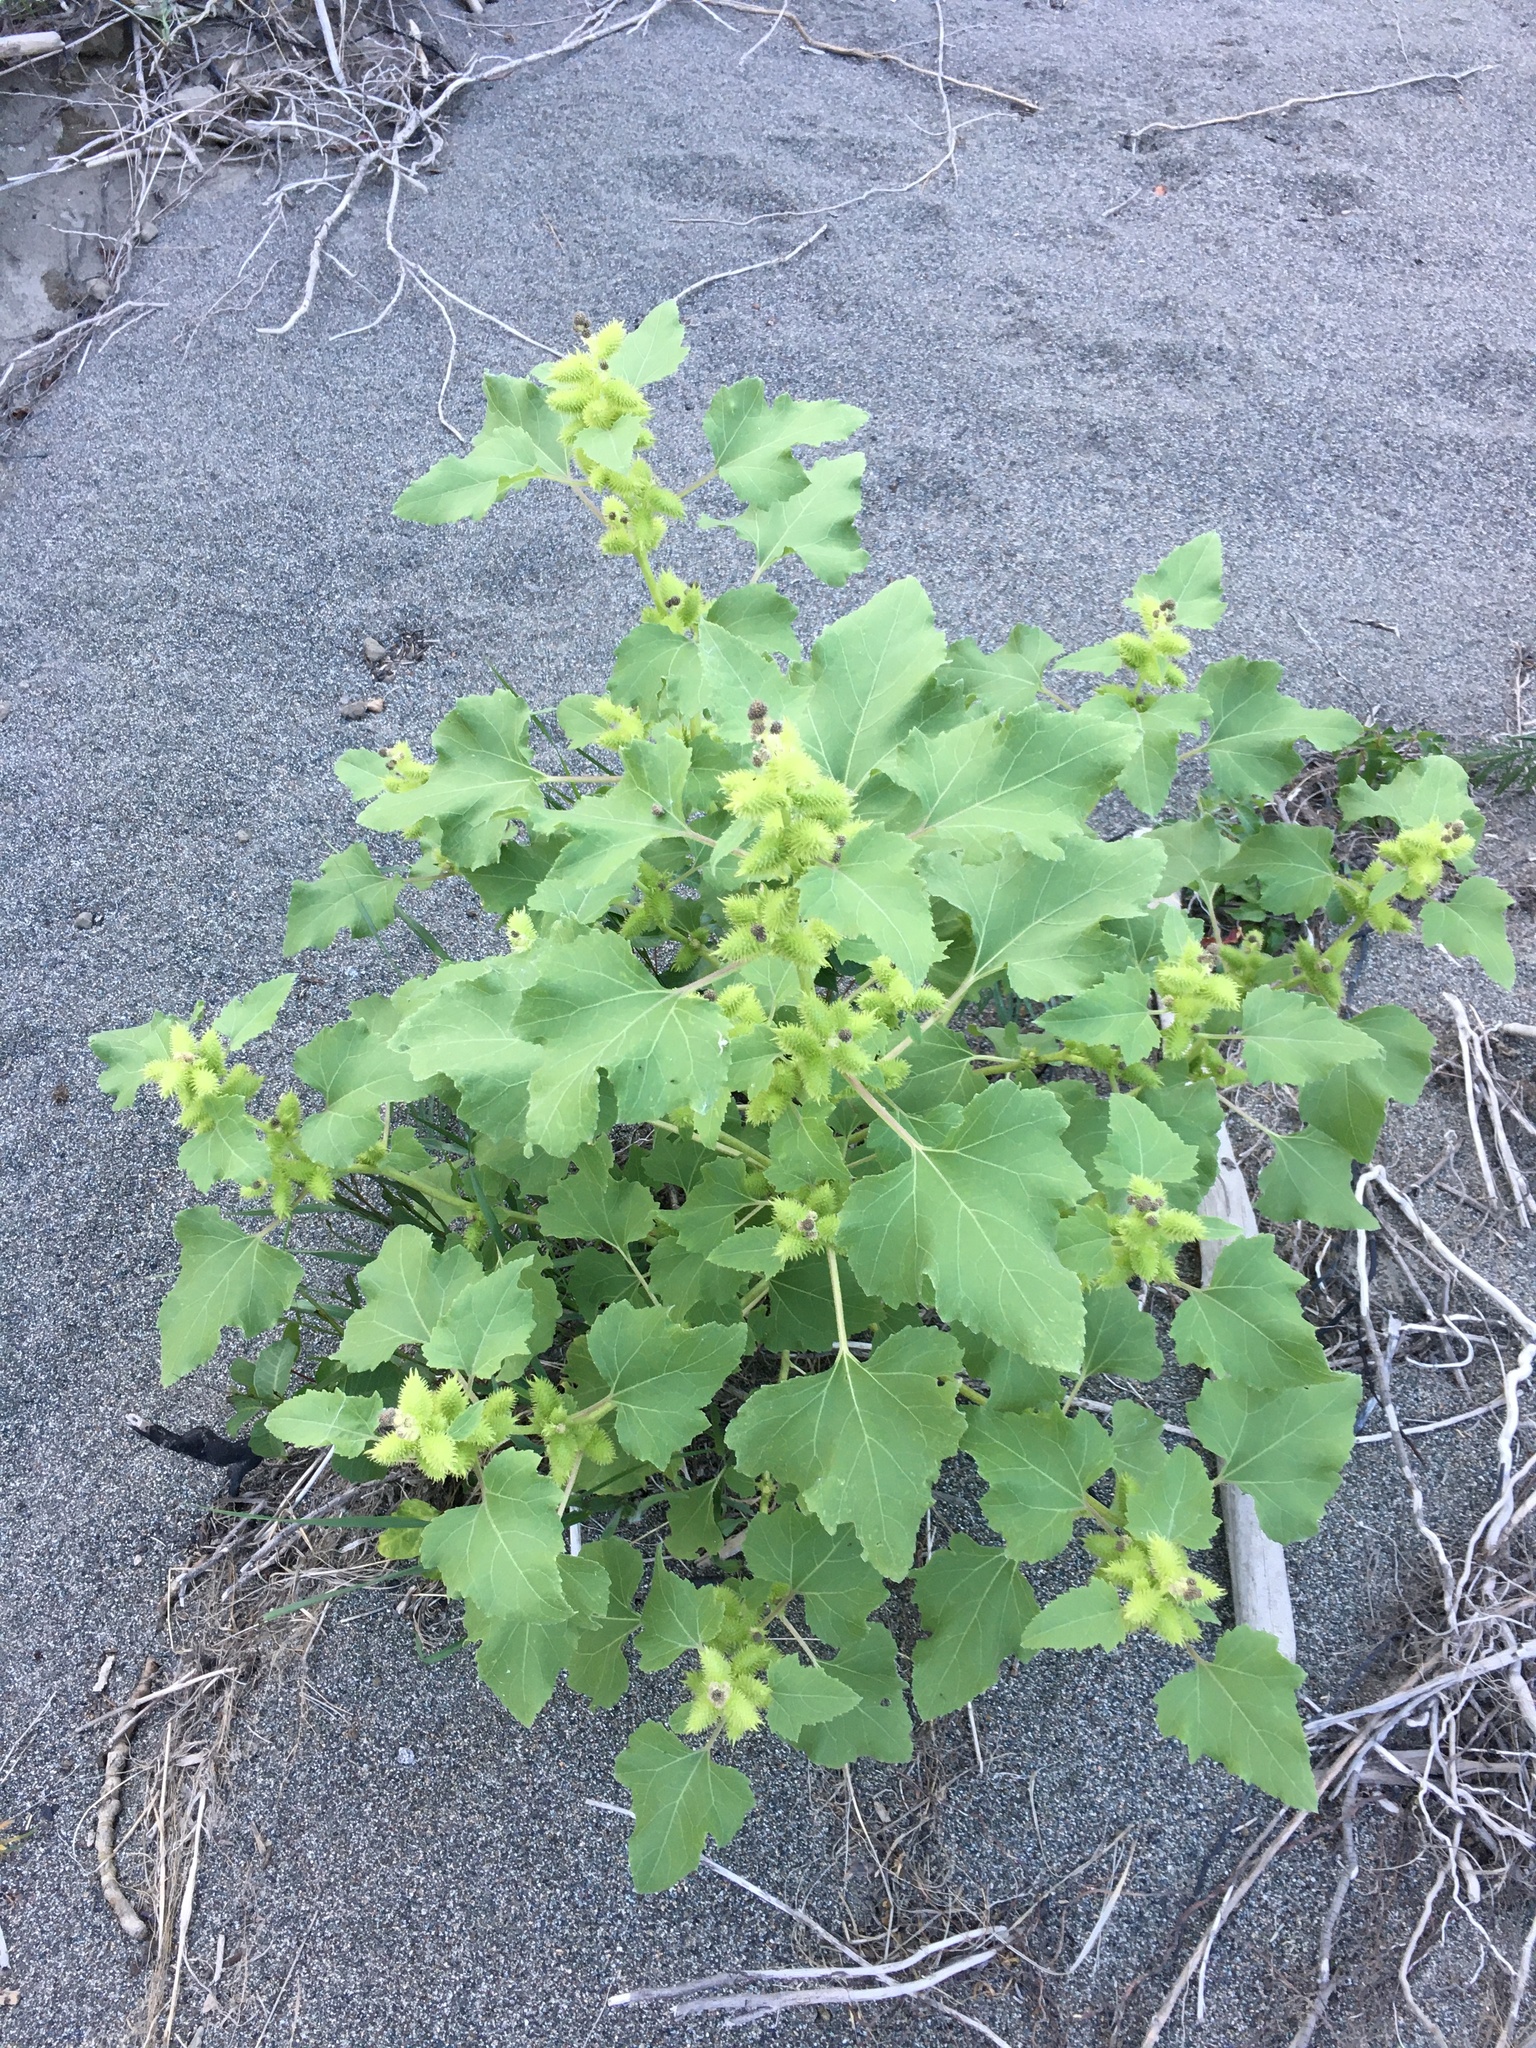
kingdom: Plantae
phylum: Tracheophyta
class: Magnoliopsida
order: Asterales
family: Asteraceae
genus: Xanthium
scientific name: Xanthium strumarium
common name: Rough cocklebur
